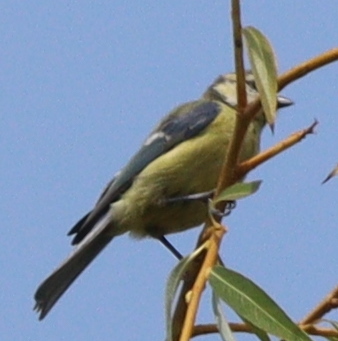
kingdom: Animalia
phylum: Chordata
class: Aves
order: Passeriformes
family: Paridae
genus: Cyanistes
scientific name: Cyanistes caeruleus
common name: Eurasian blue tit
